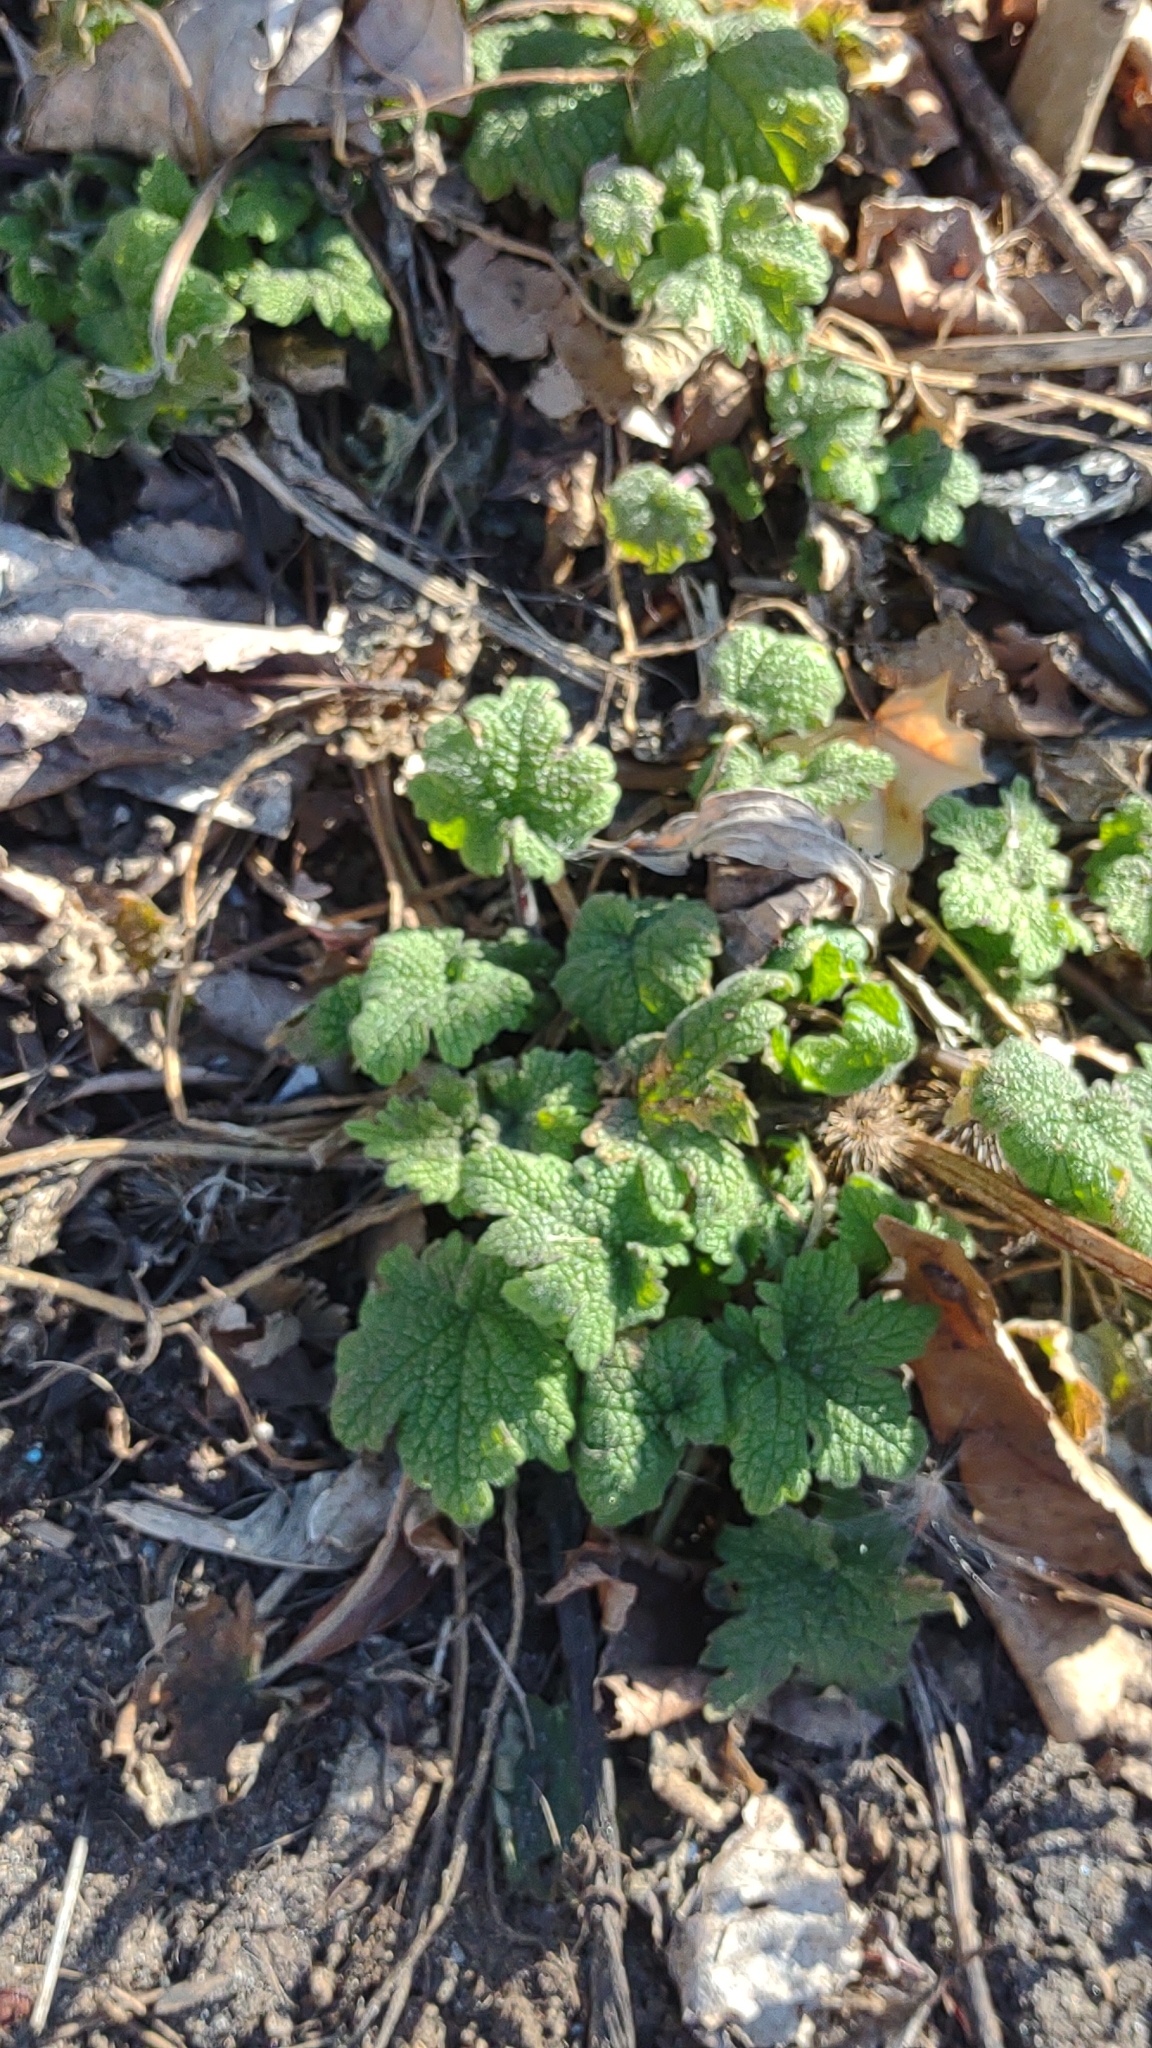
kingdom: Plantae
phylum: Tracheophyta
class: Magnoliopsida
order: Lamiales
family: Lamiaceae
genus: Leonurus
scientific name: Leonurus cardiaca
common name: Motherwort
